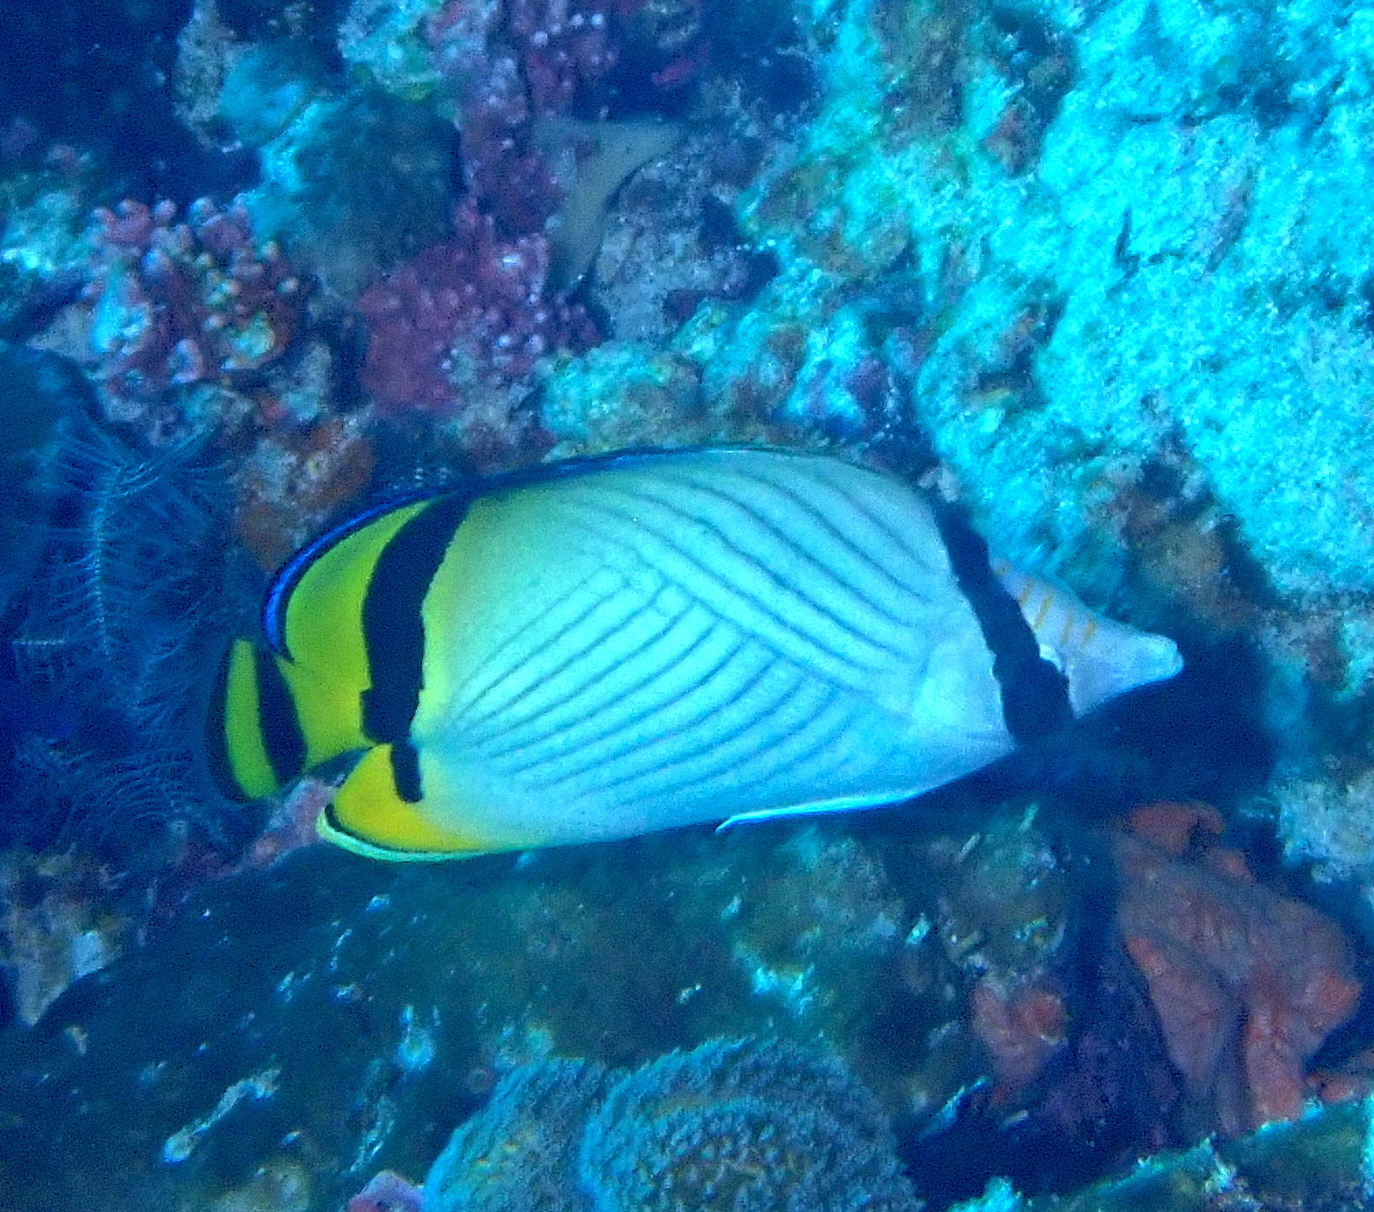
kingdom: Animalia
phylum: Chordata
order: Perciformes
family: Chaetodontidae
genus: Chaetodon
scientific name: Chaetodon vagabundus
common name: Vagabond butterflyfish
